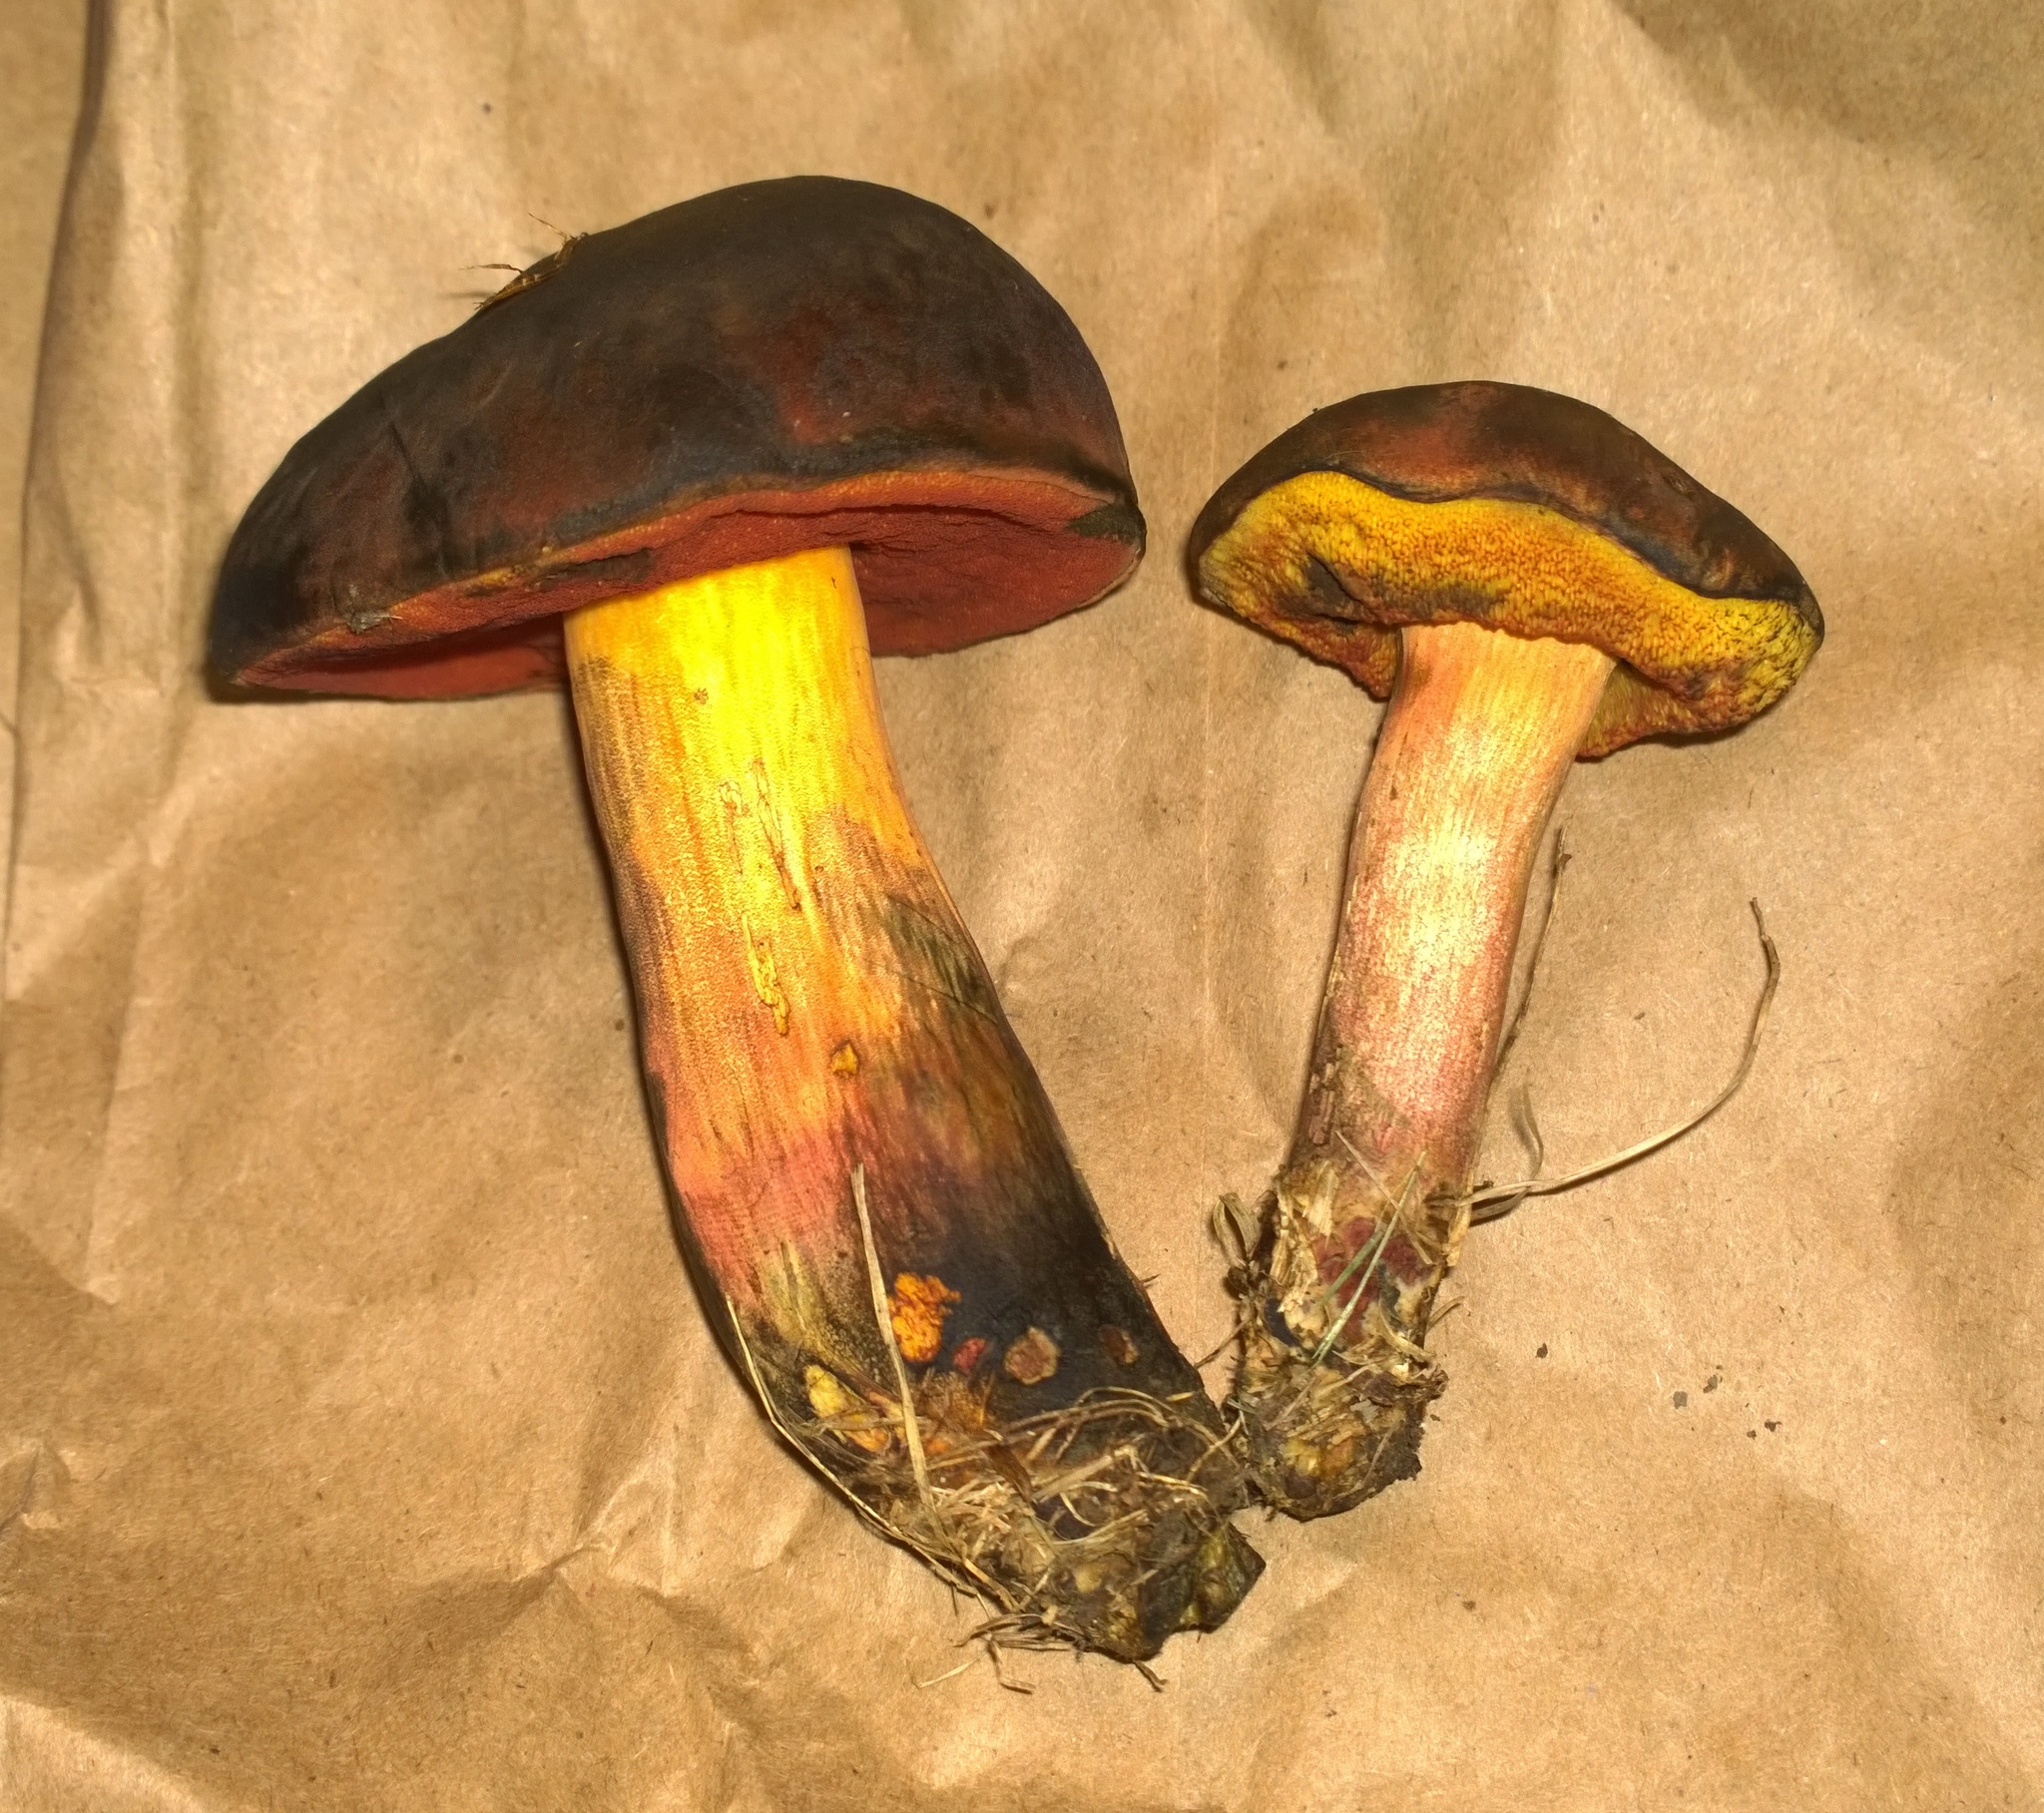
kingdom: Fungi
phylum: Basidiomycota
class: Agaricomycetes
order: Boletales
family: Boletaceae
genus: Boletus
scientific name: Boletus subvelutipes
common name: Red-mouth bolete
